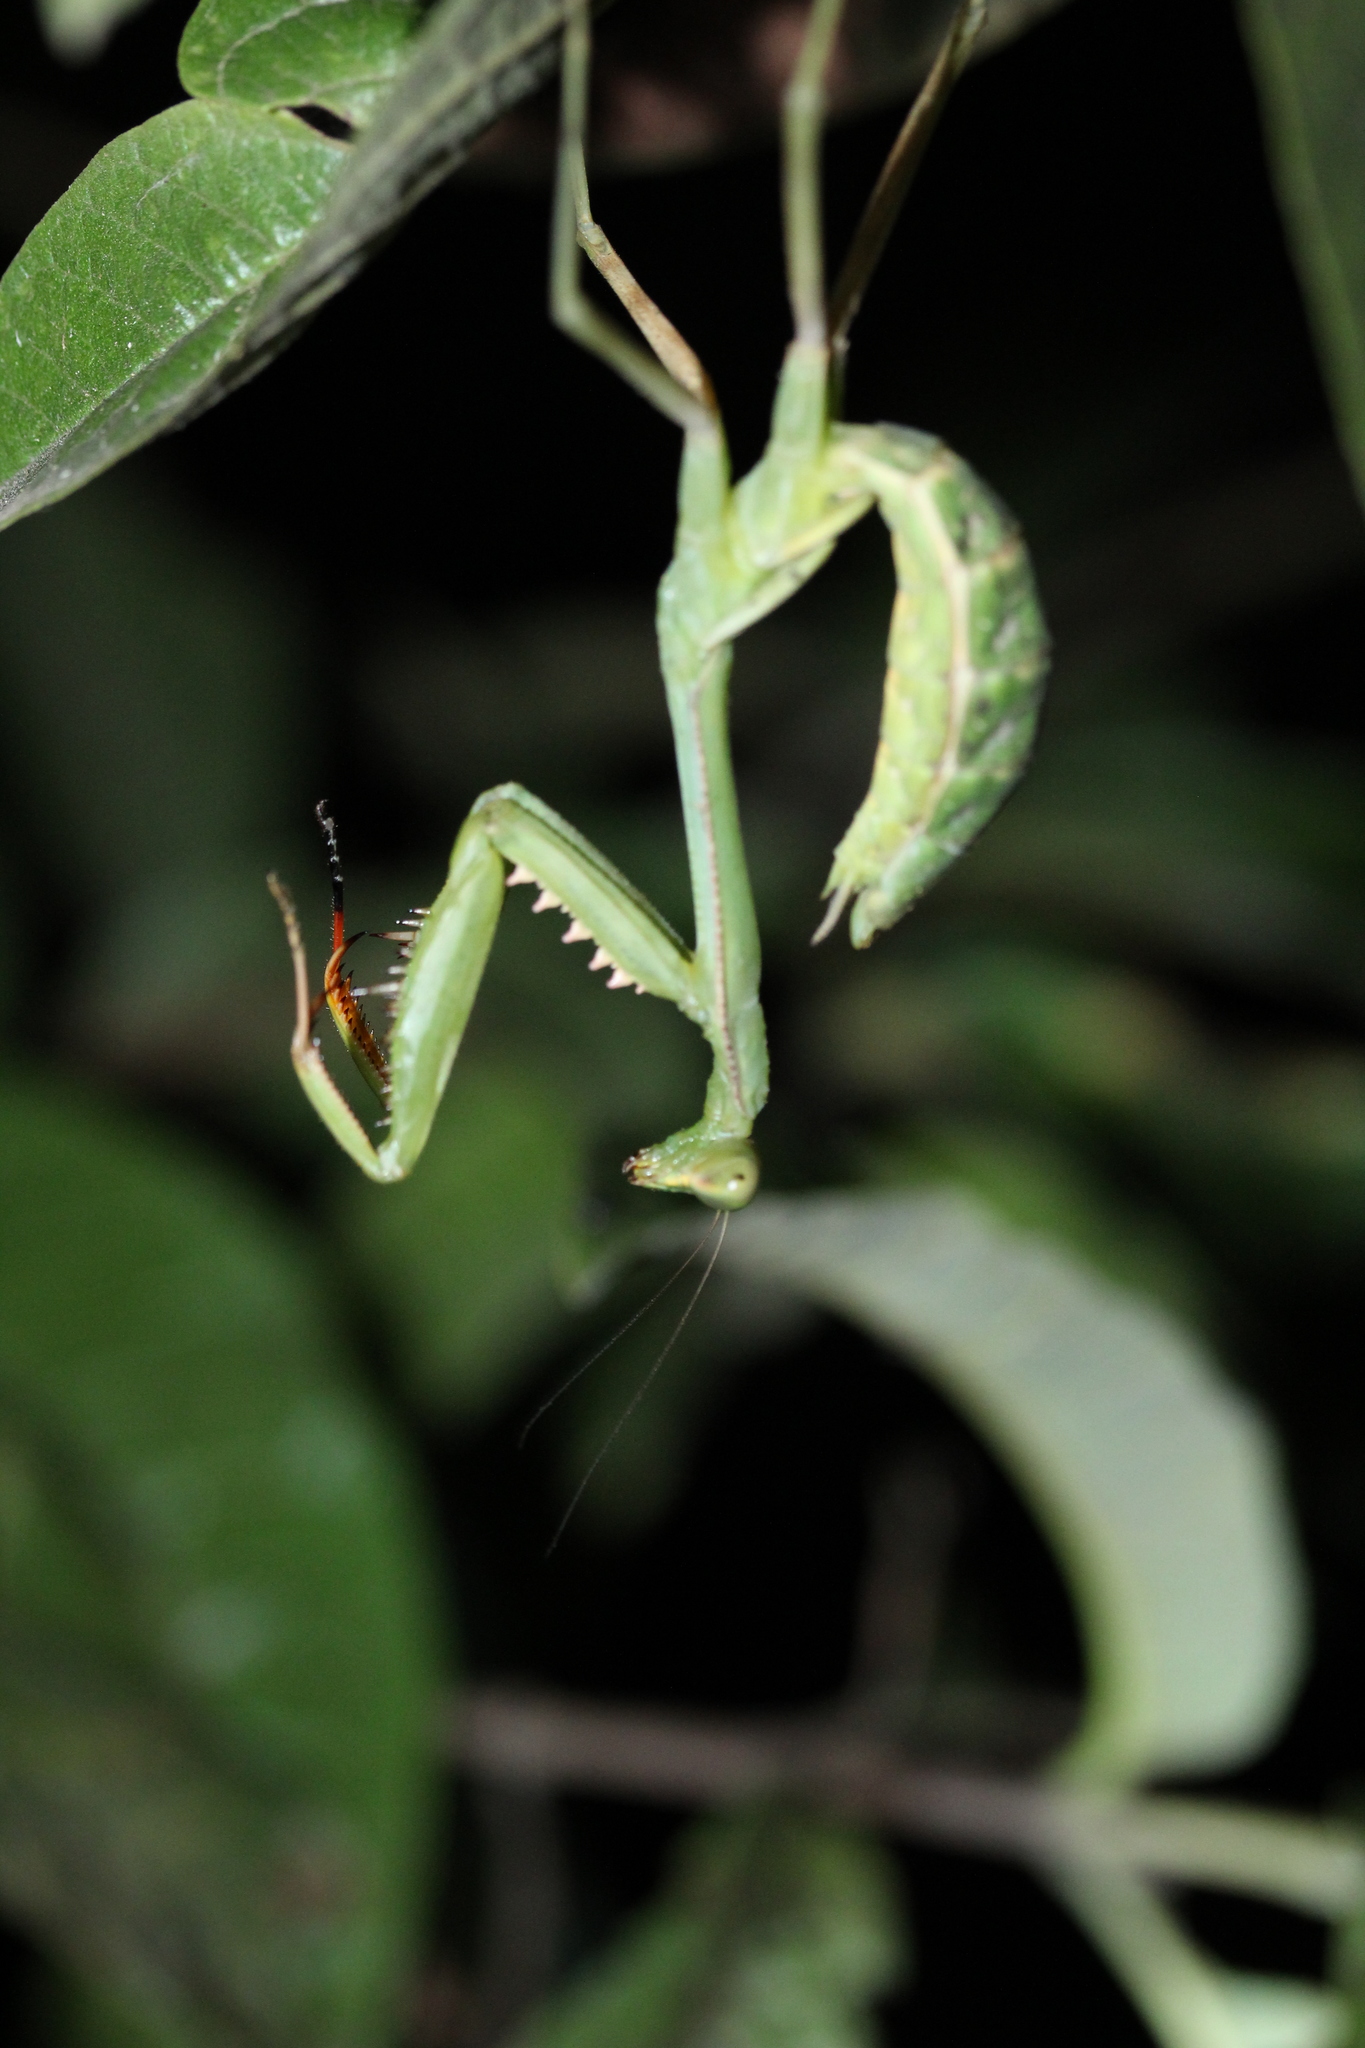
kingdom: Animalia
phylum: Arthropoda
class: Insecta
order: Mantodea
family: Mantidae
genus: Stagmomantis
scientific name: Stagmomantis theophila
